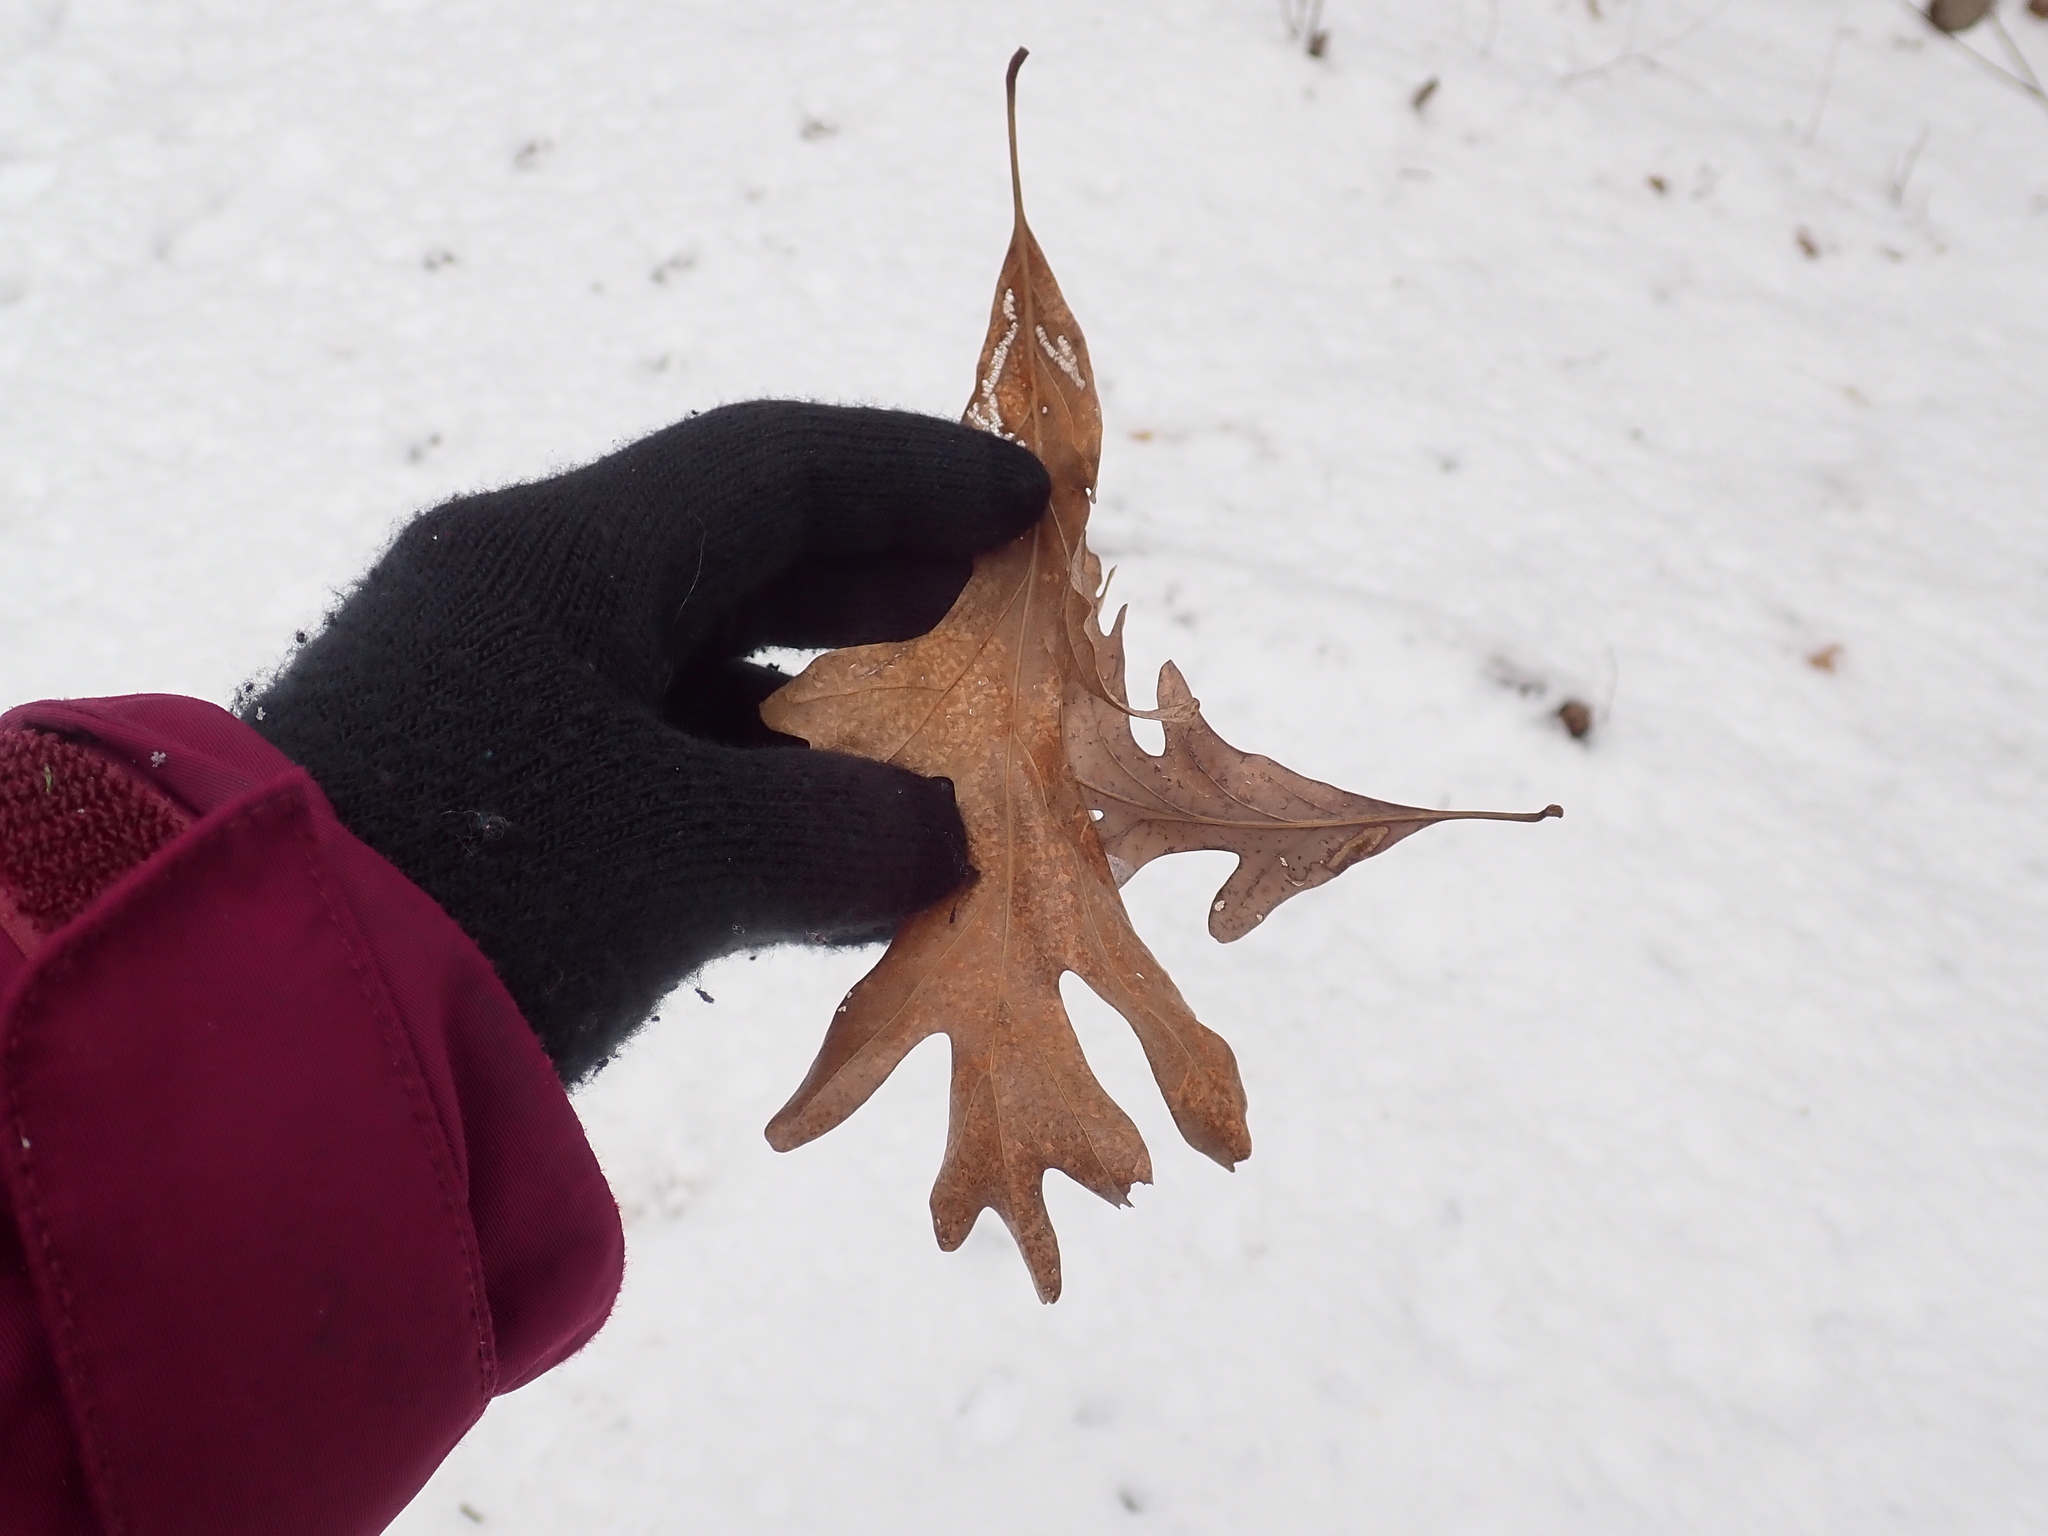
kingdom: Plantae
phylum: Tracheophyta
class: Magnoliopsida
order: Fagales
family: Fagaceae
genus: Quercus
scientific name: Quercus alba
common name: White oak
